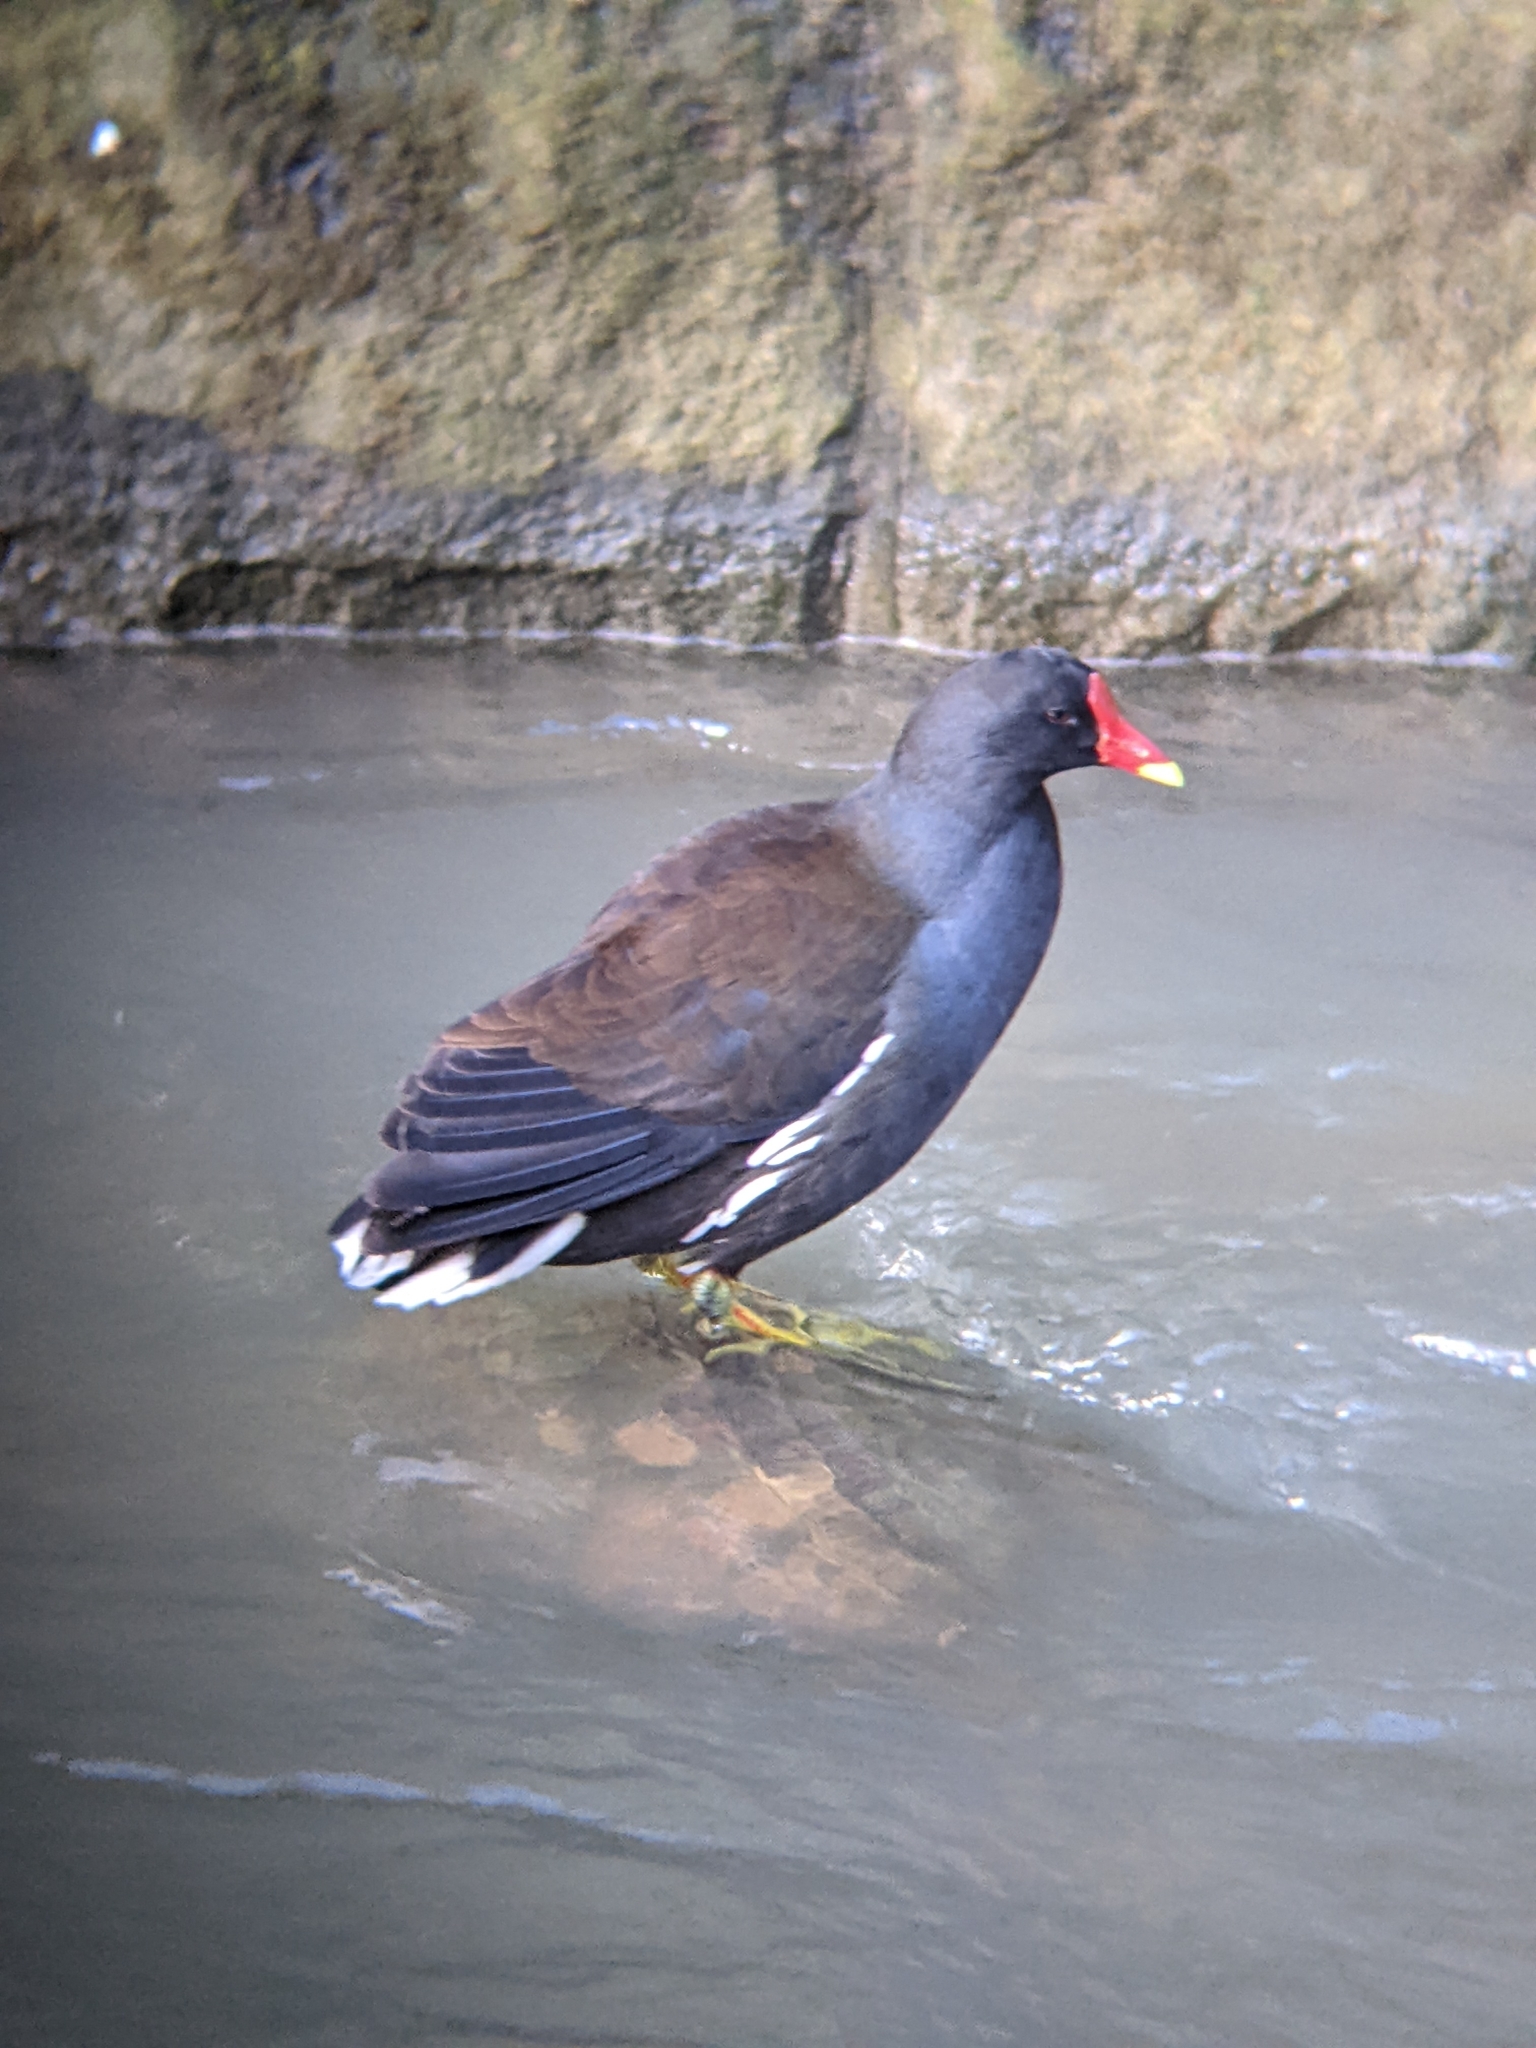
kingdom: Animalia
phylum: Chordata
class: Aves
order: Gruiformes
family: Rallidae
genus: Gallinula
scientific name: Gallinula chloropus
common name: Common moorhen
